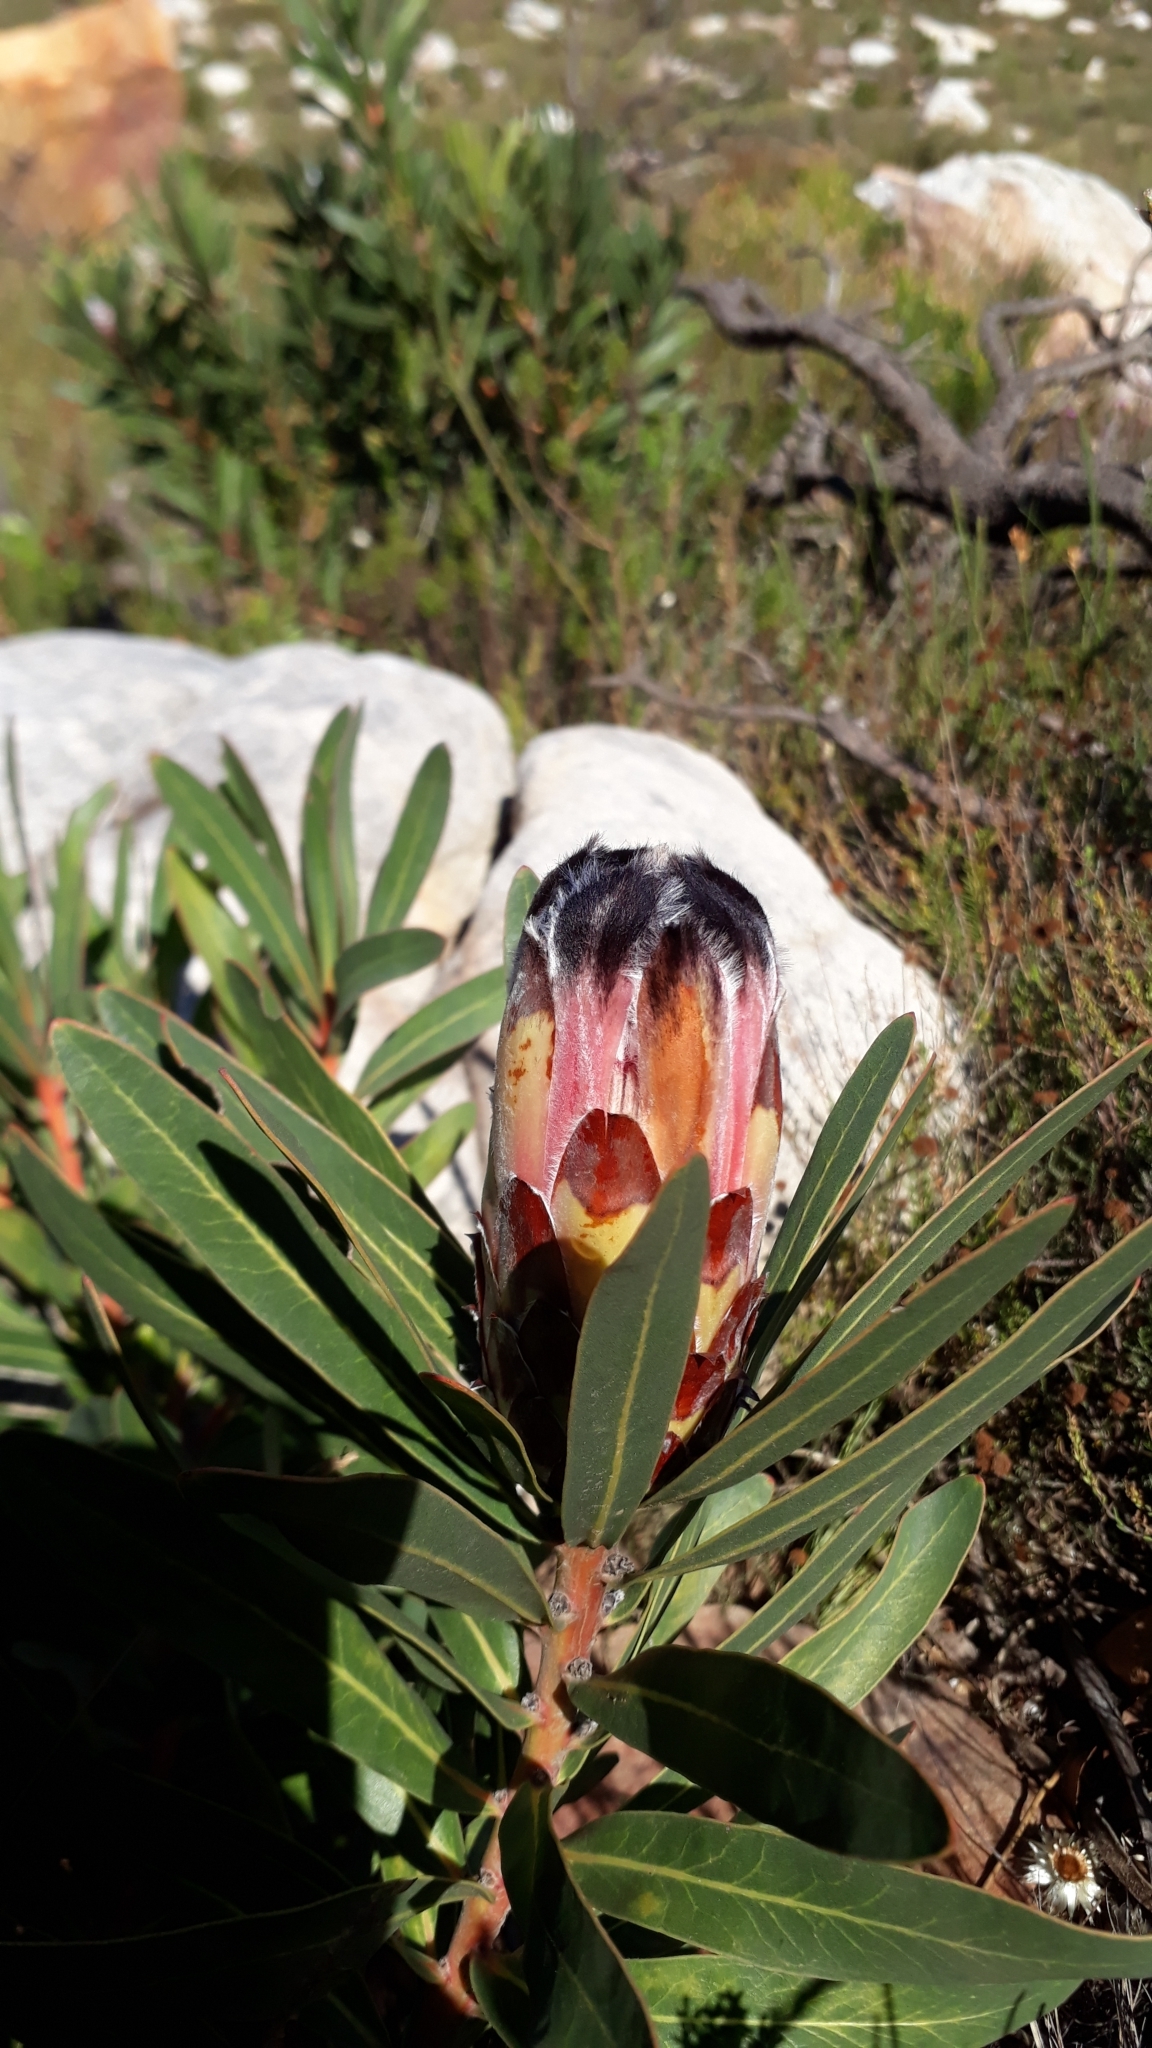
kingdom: Plantae
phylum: Tracheophyta
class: Magnoliopsida
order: Proteales
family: Proteaceae
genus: Protea
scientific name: Protea lepidocarpodendron
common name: Black-bearded protea
